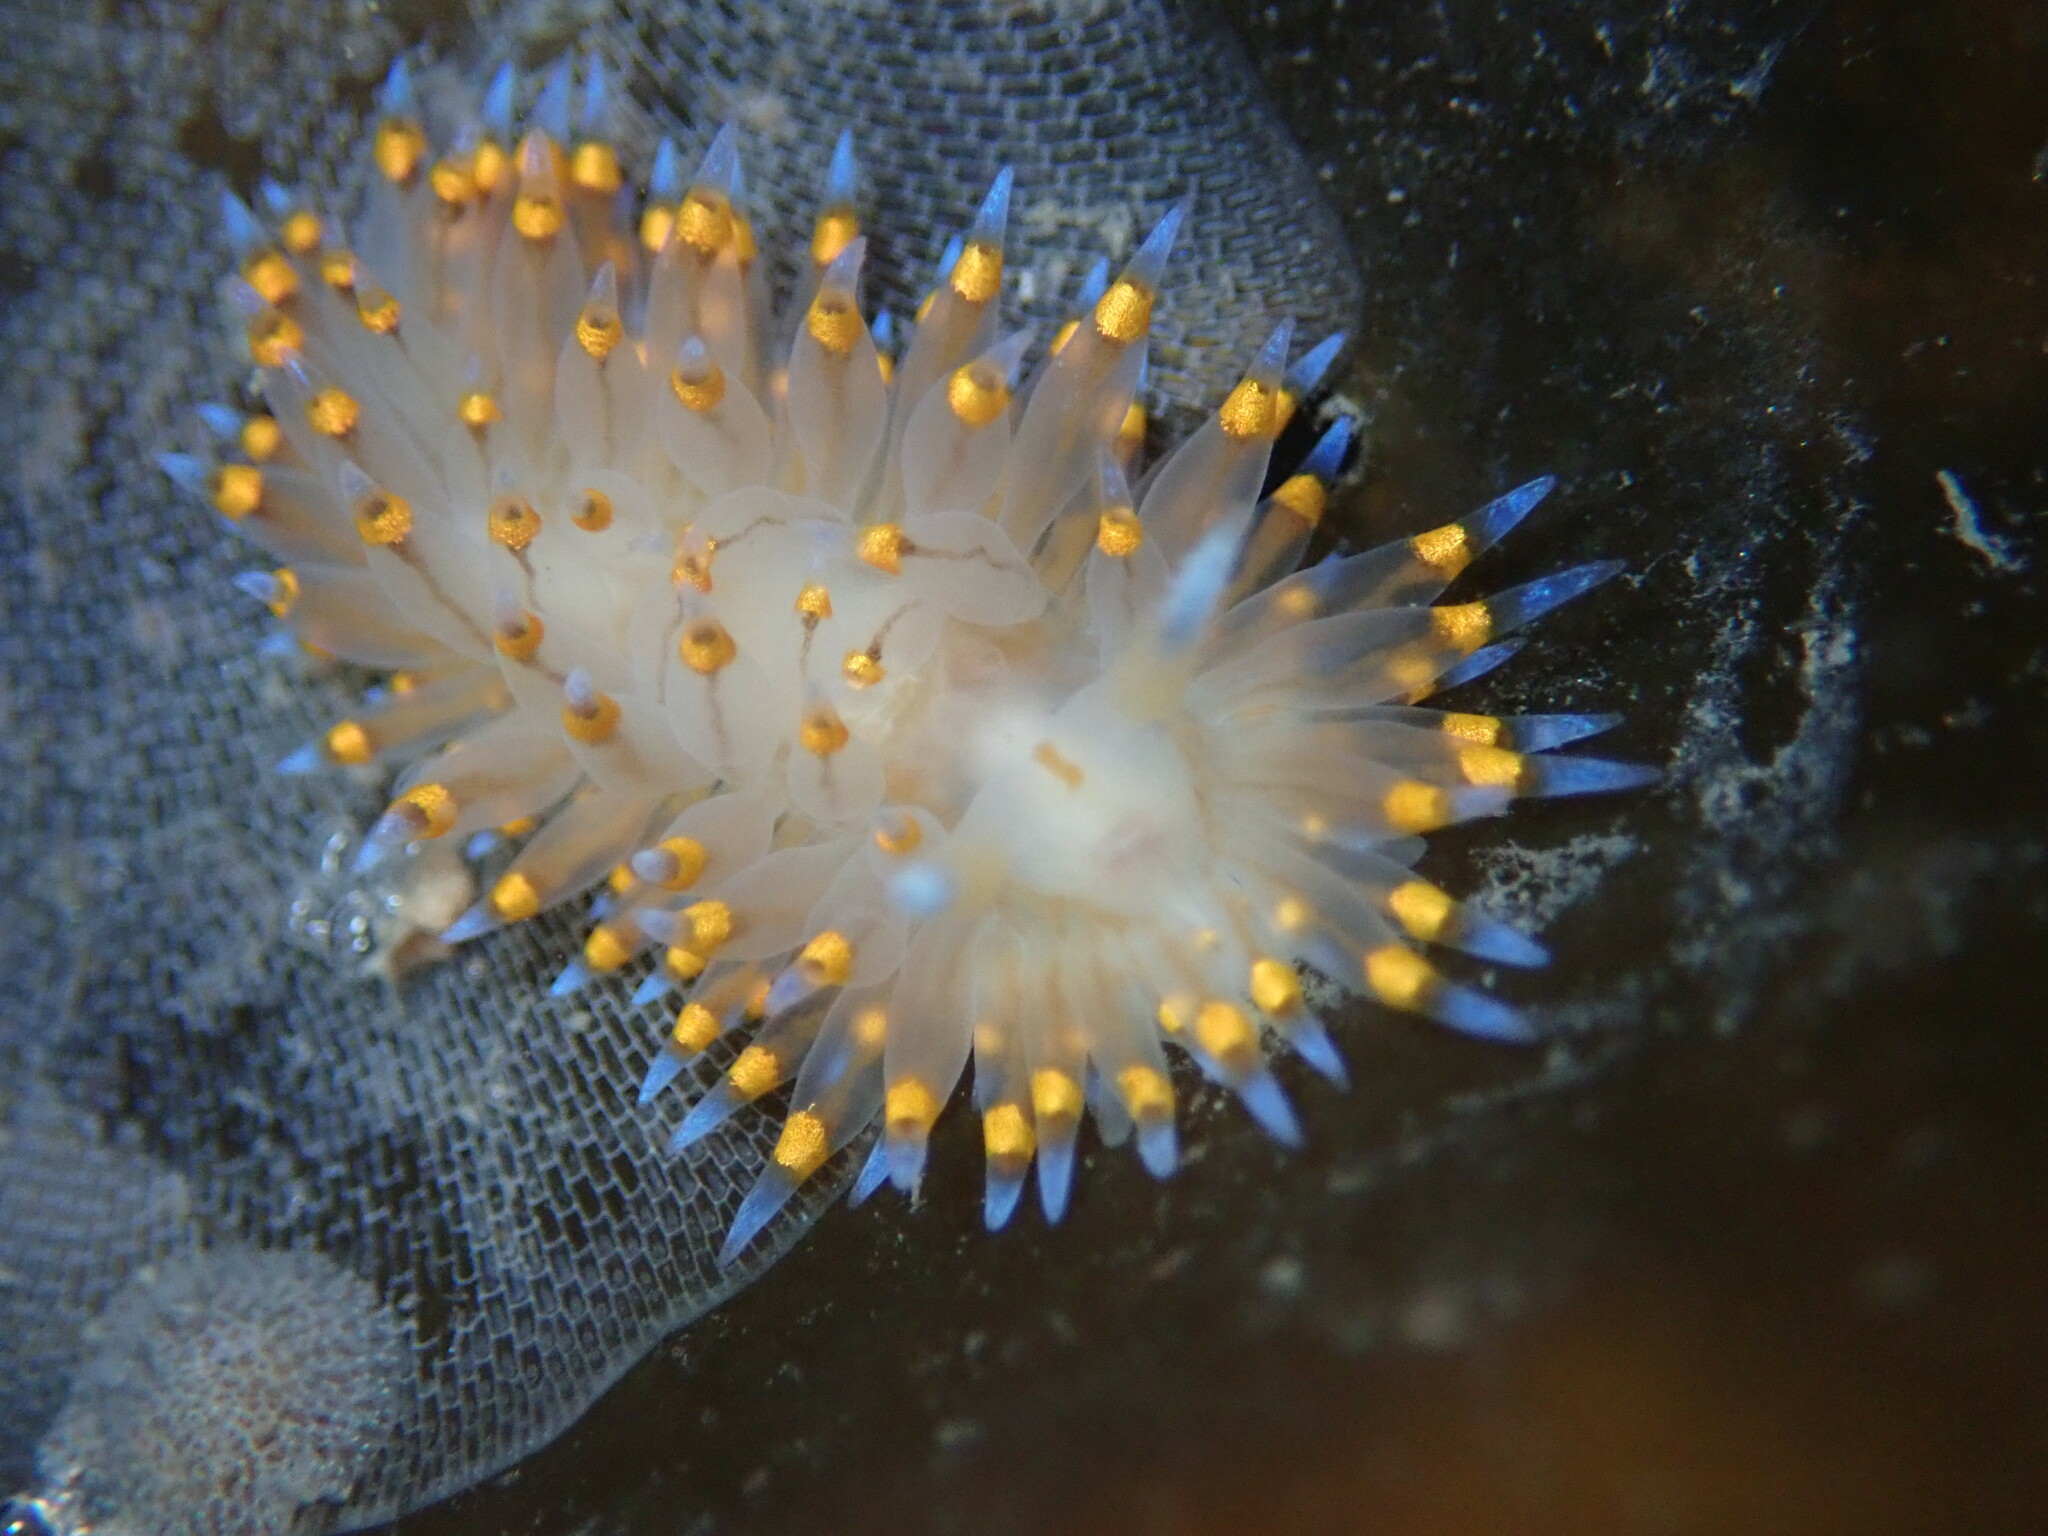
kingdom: Animalia
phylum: Mollusca
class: Gastropoda
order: Nudibranchia
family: Janolidae
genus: Antiopella
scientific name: Antiopella barbarensis
